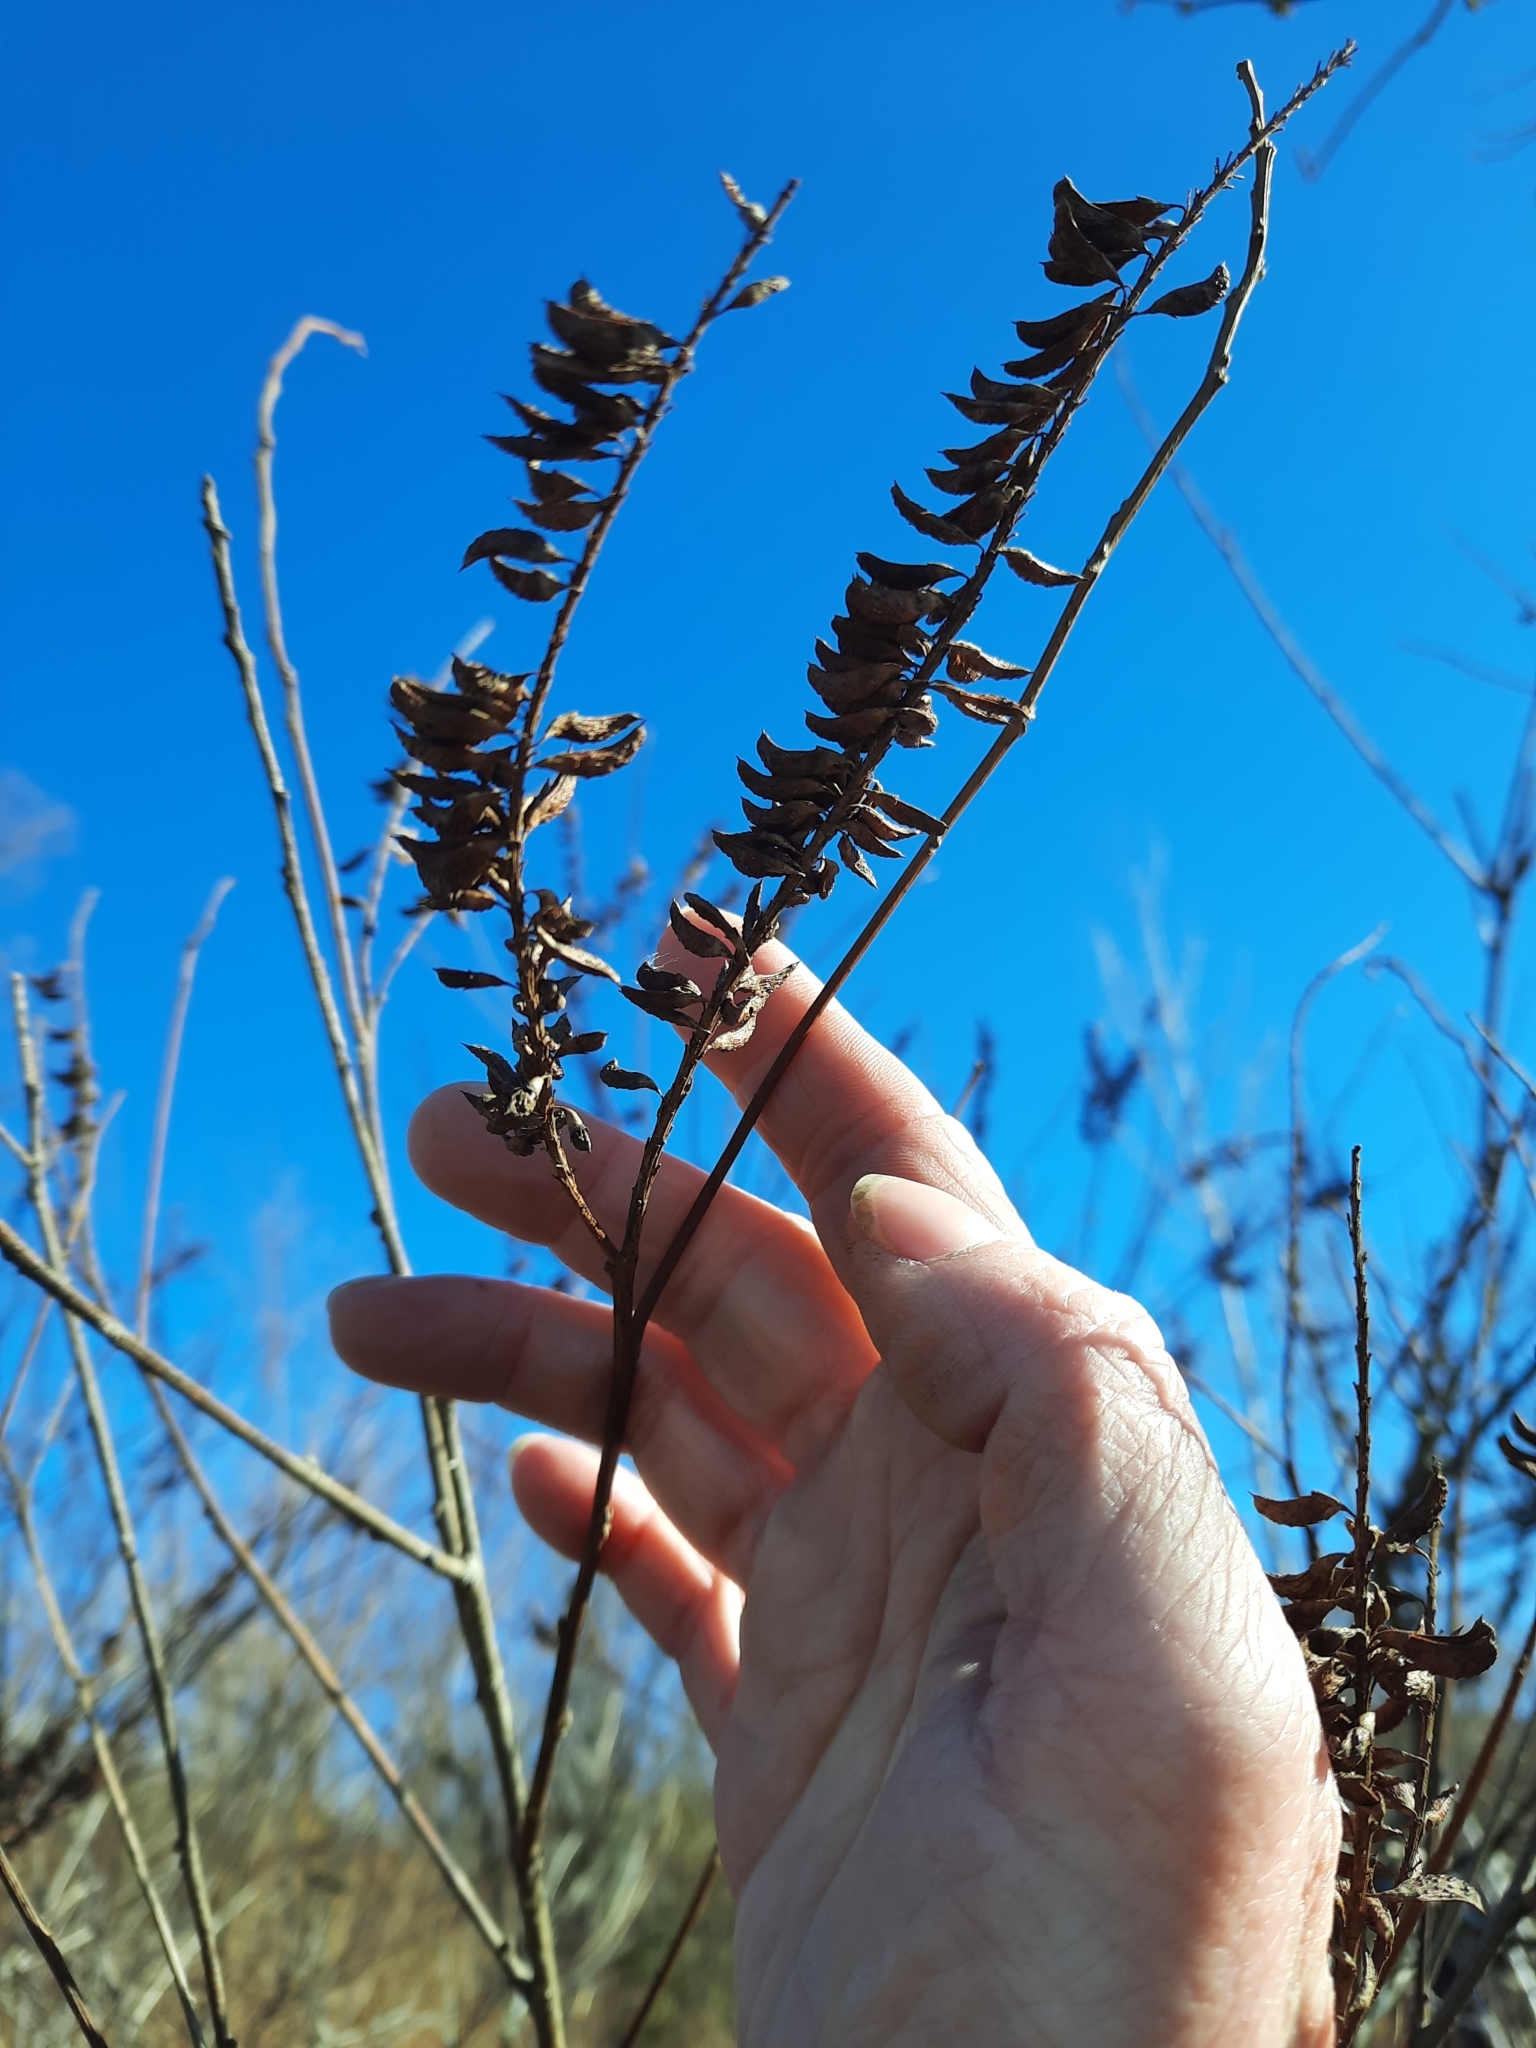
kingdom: Plantae
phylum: Tracheophyta
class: Magnoliopsida
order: Fabales
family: Fabaceae
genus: Amorpha
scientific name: Amorpha fruticosa
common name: False indigo
